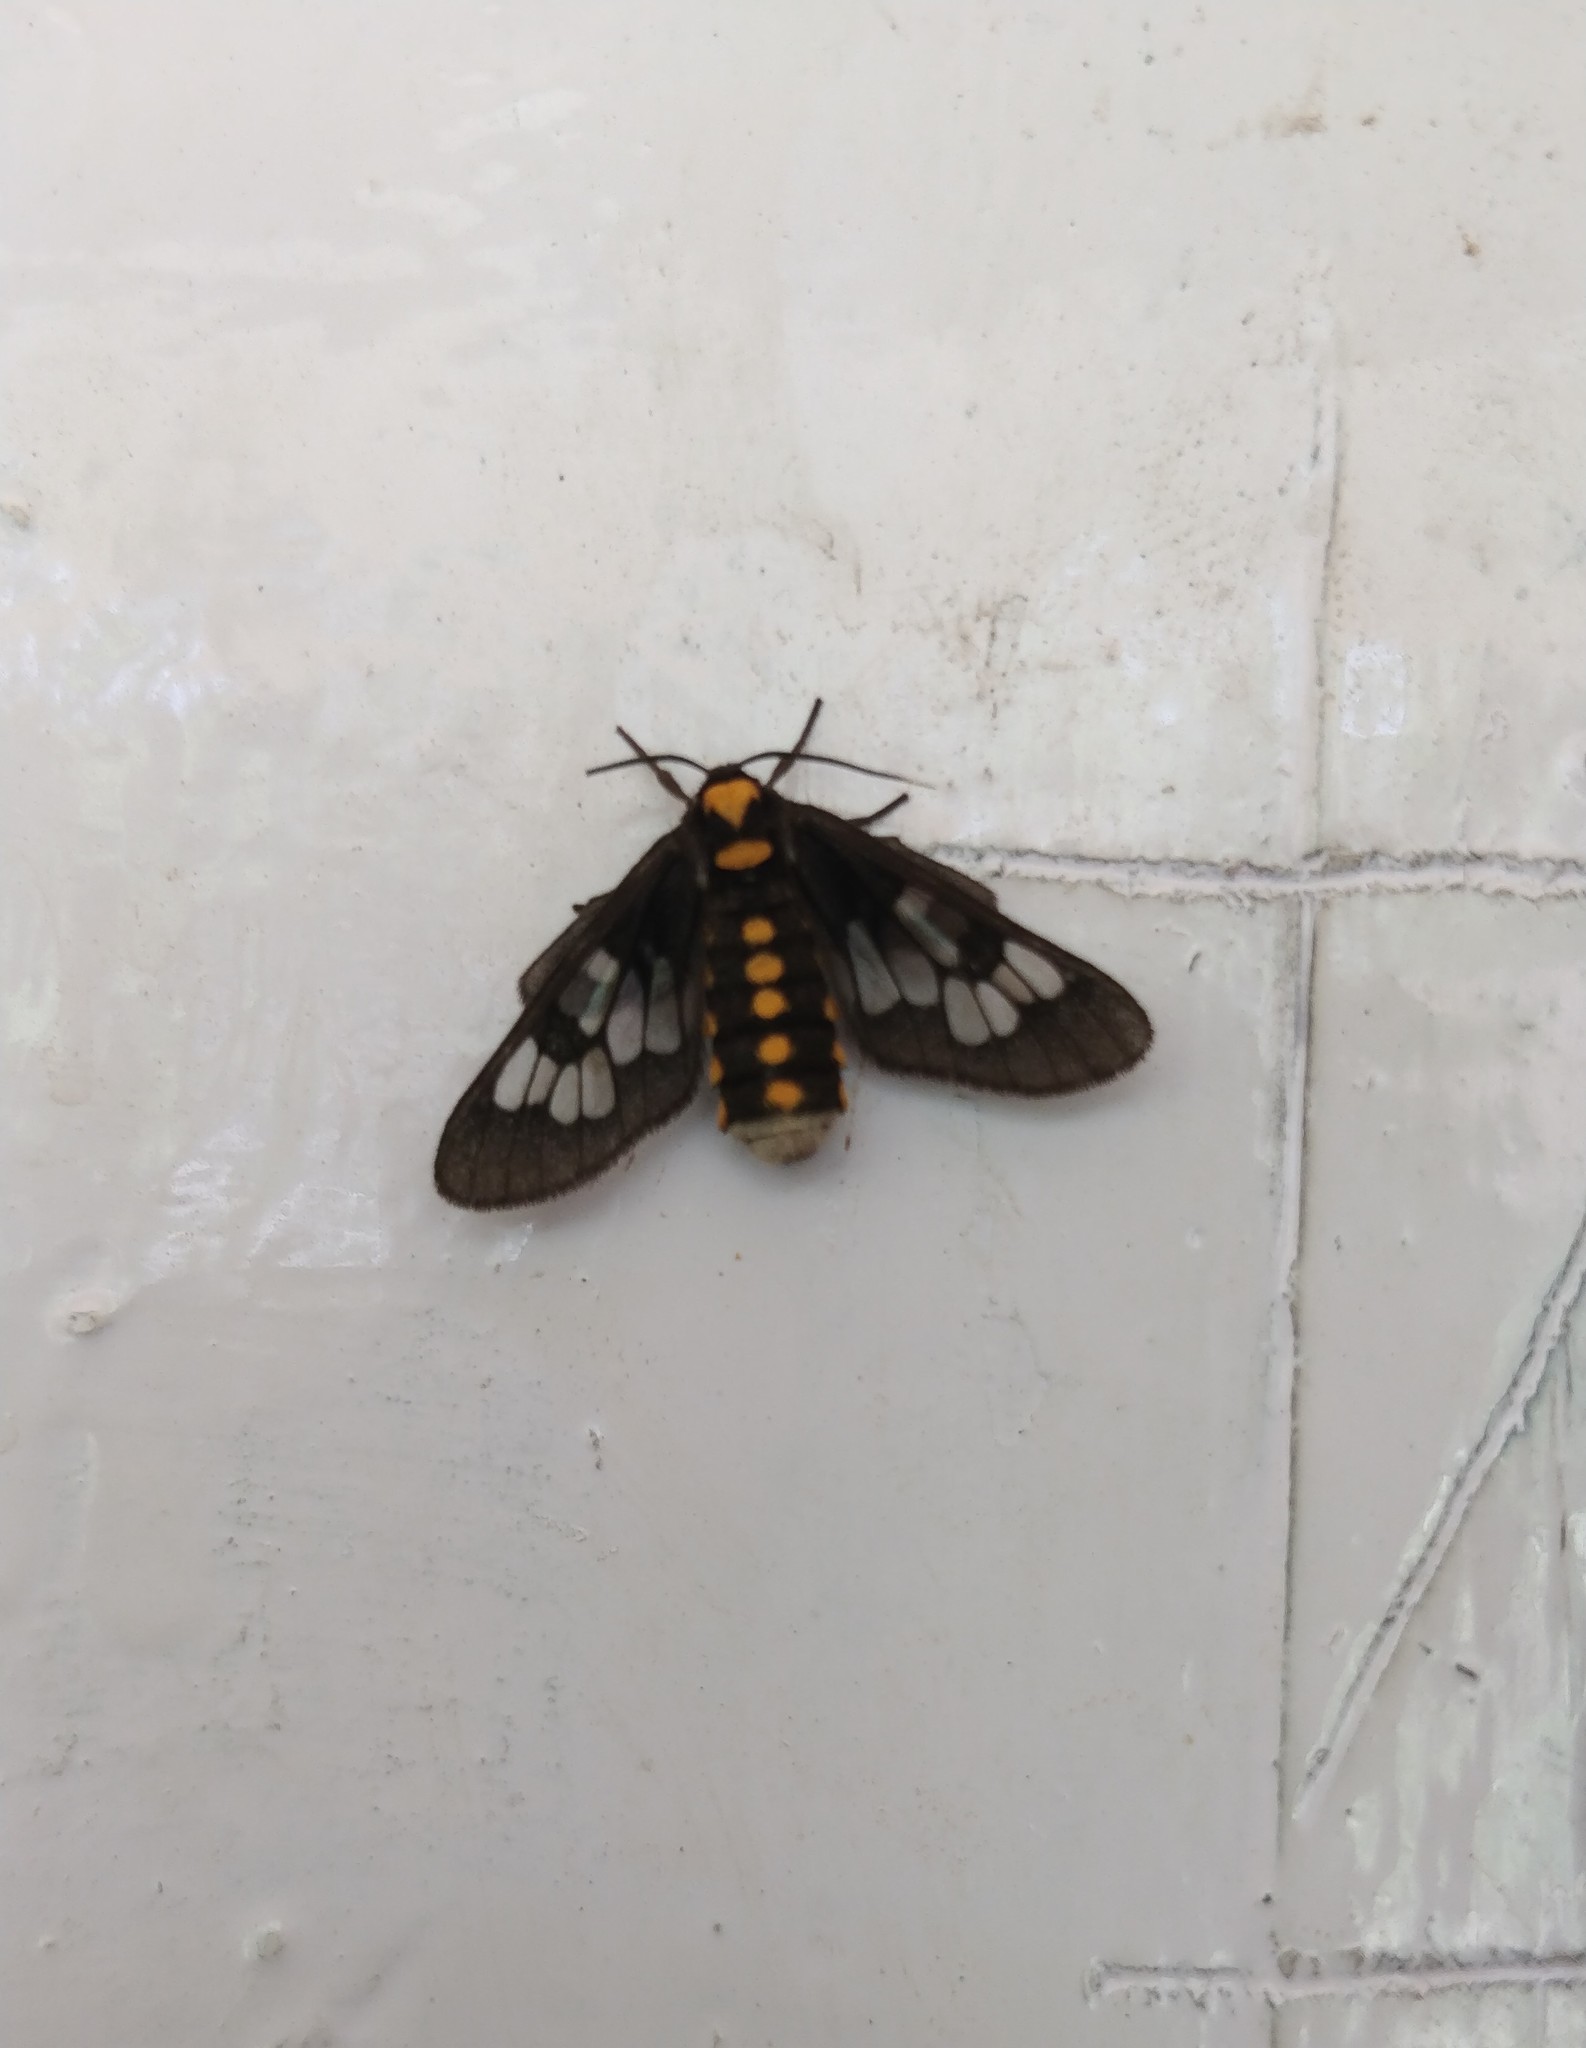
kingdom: Animalia
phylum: Arthropoda
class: Insecta
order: Lepidoptera
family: Erebidae
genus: Eressa
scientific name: Eressa confinis
